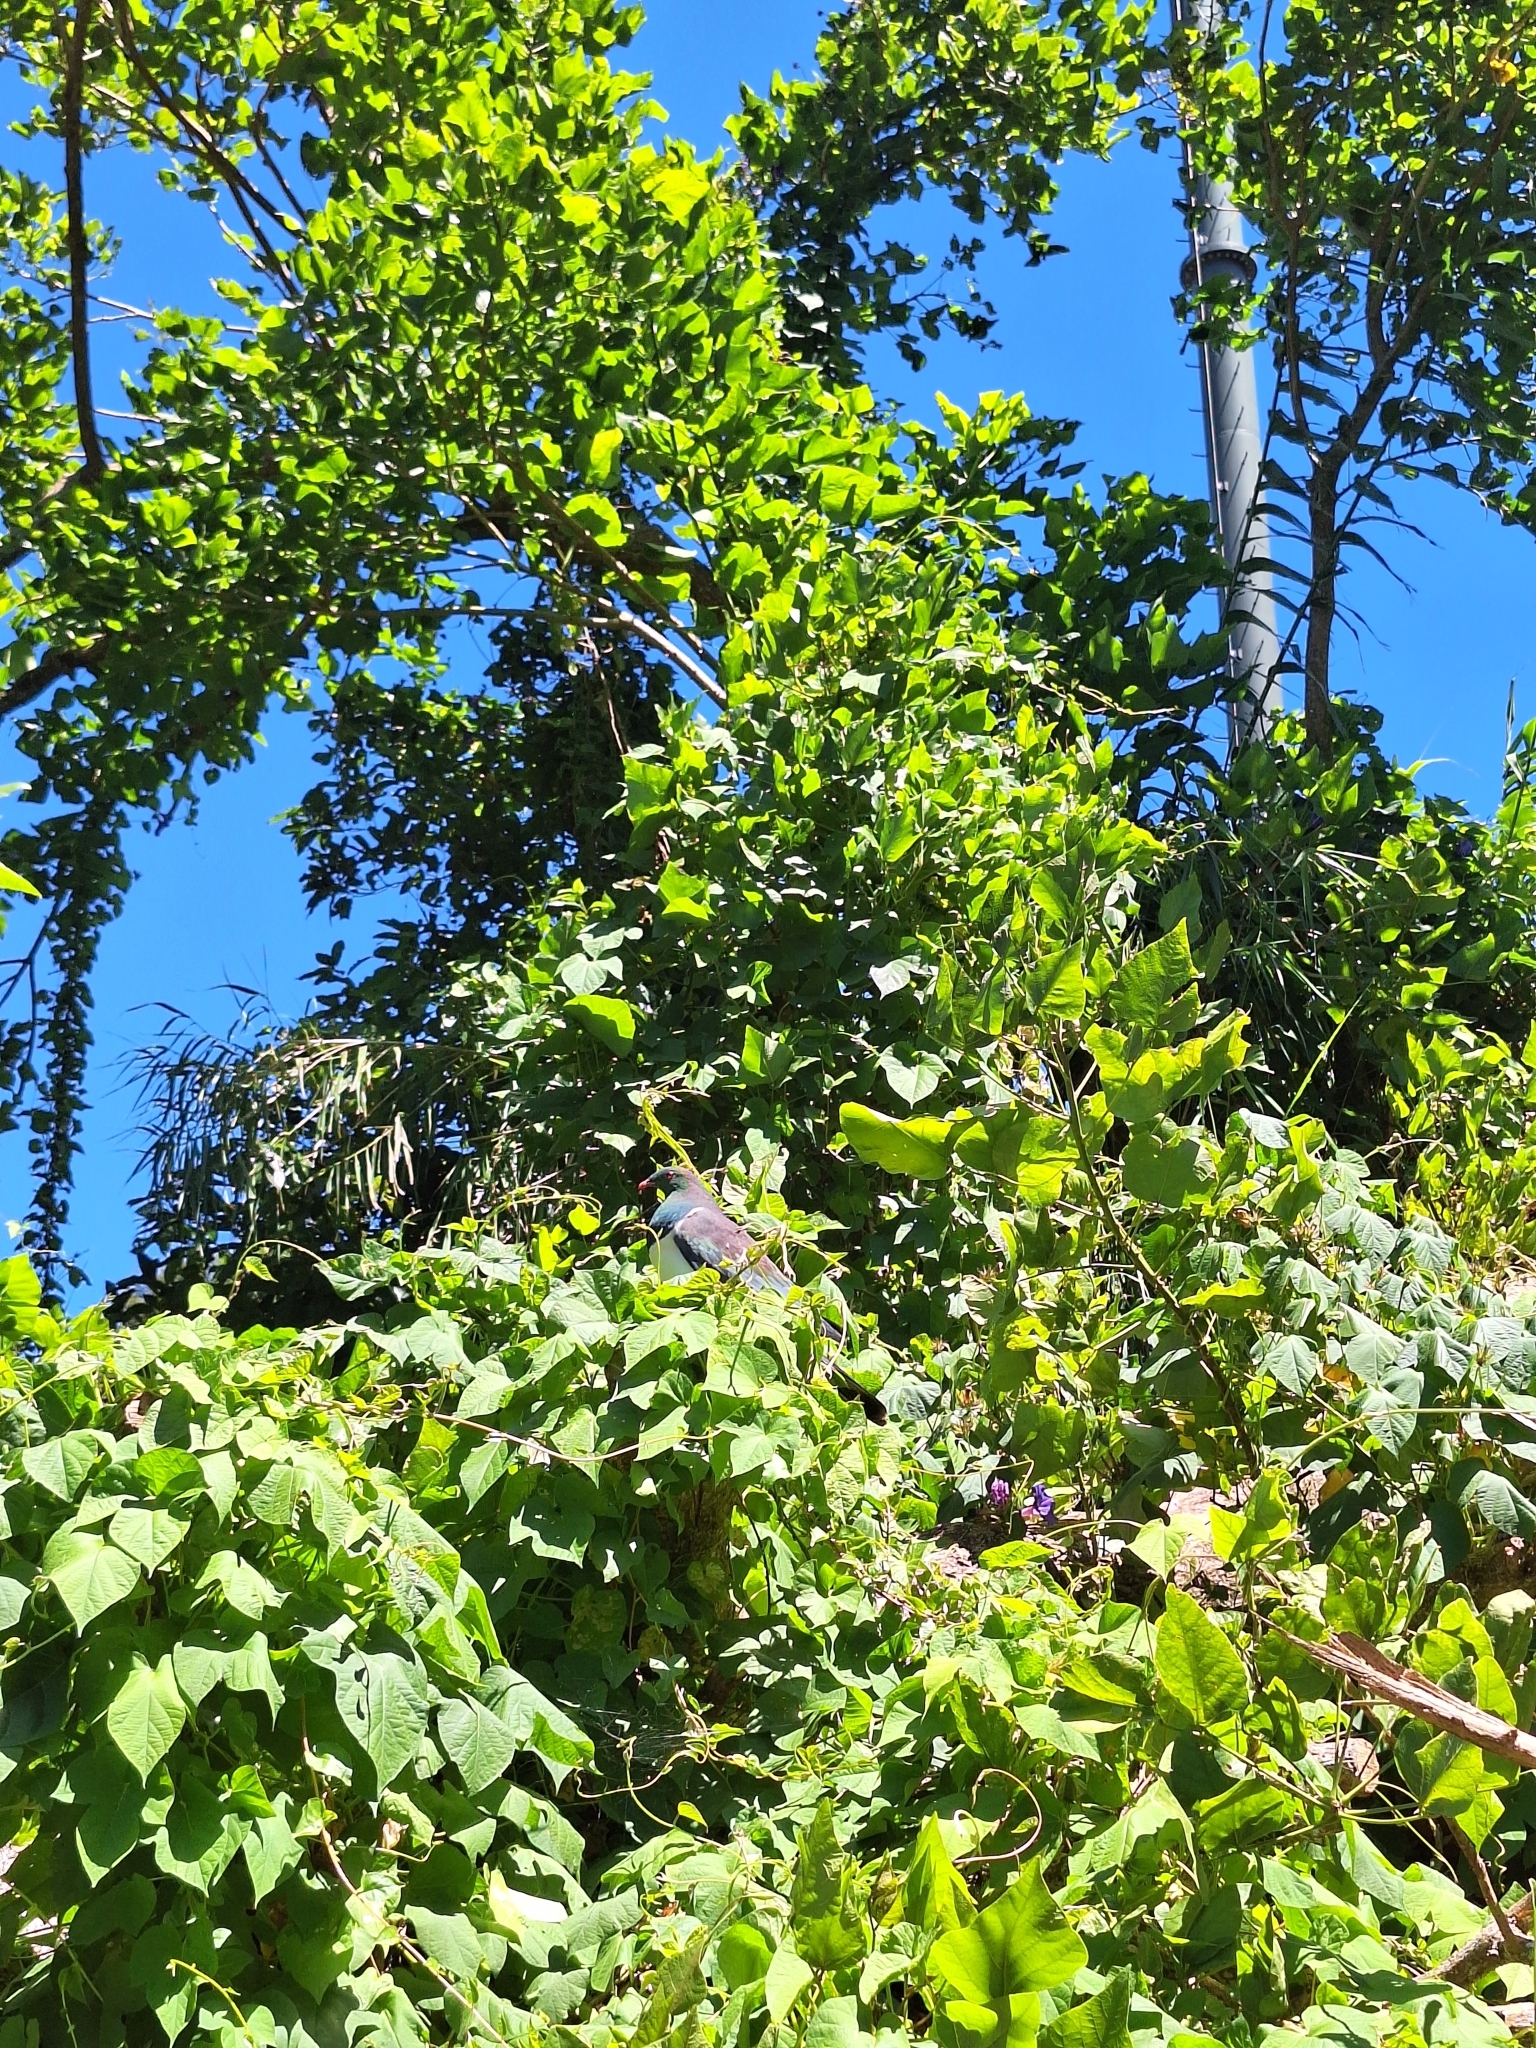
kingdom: Animalia
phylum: Chordata
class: Aves
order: Columbiformes
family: Columbidae
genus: Hemiphaga
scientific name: Hemiphaga novaeseelandiae
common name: New zealand pigeon
